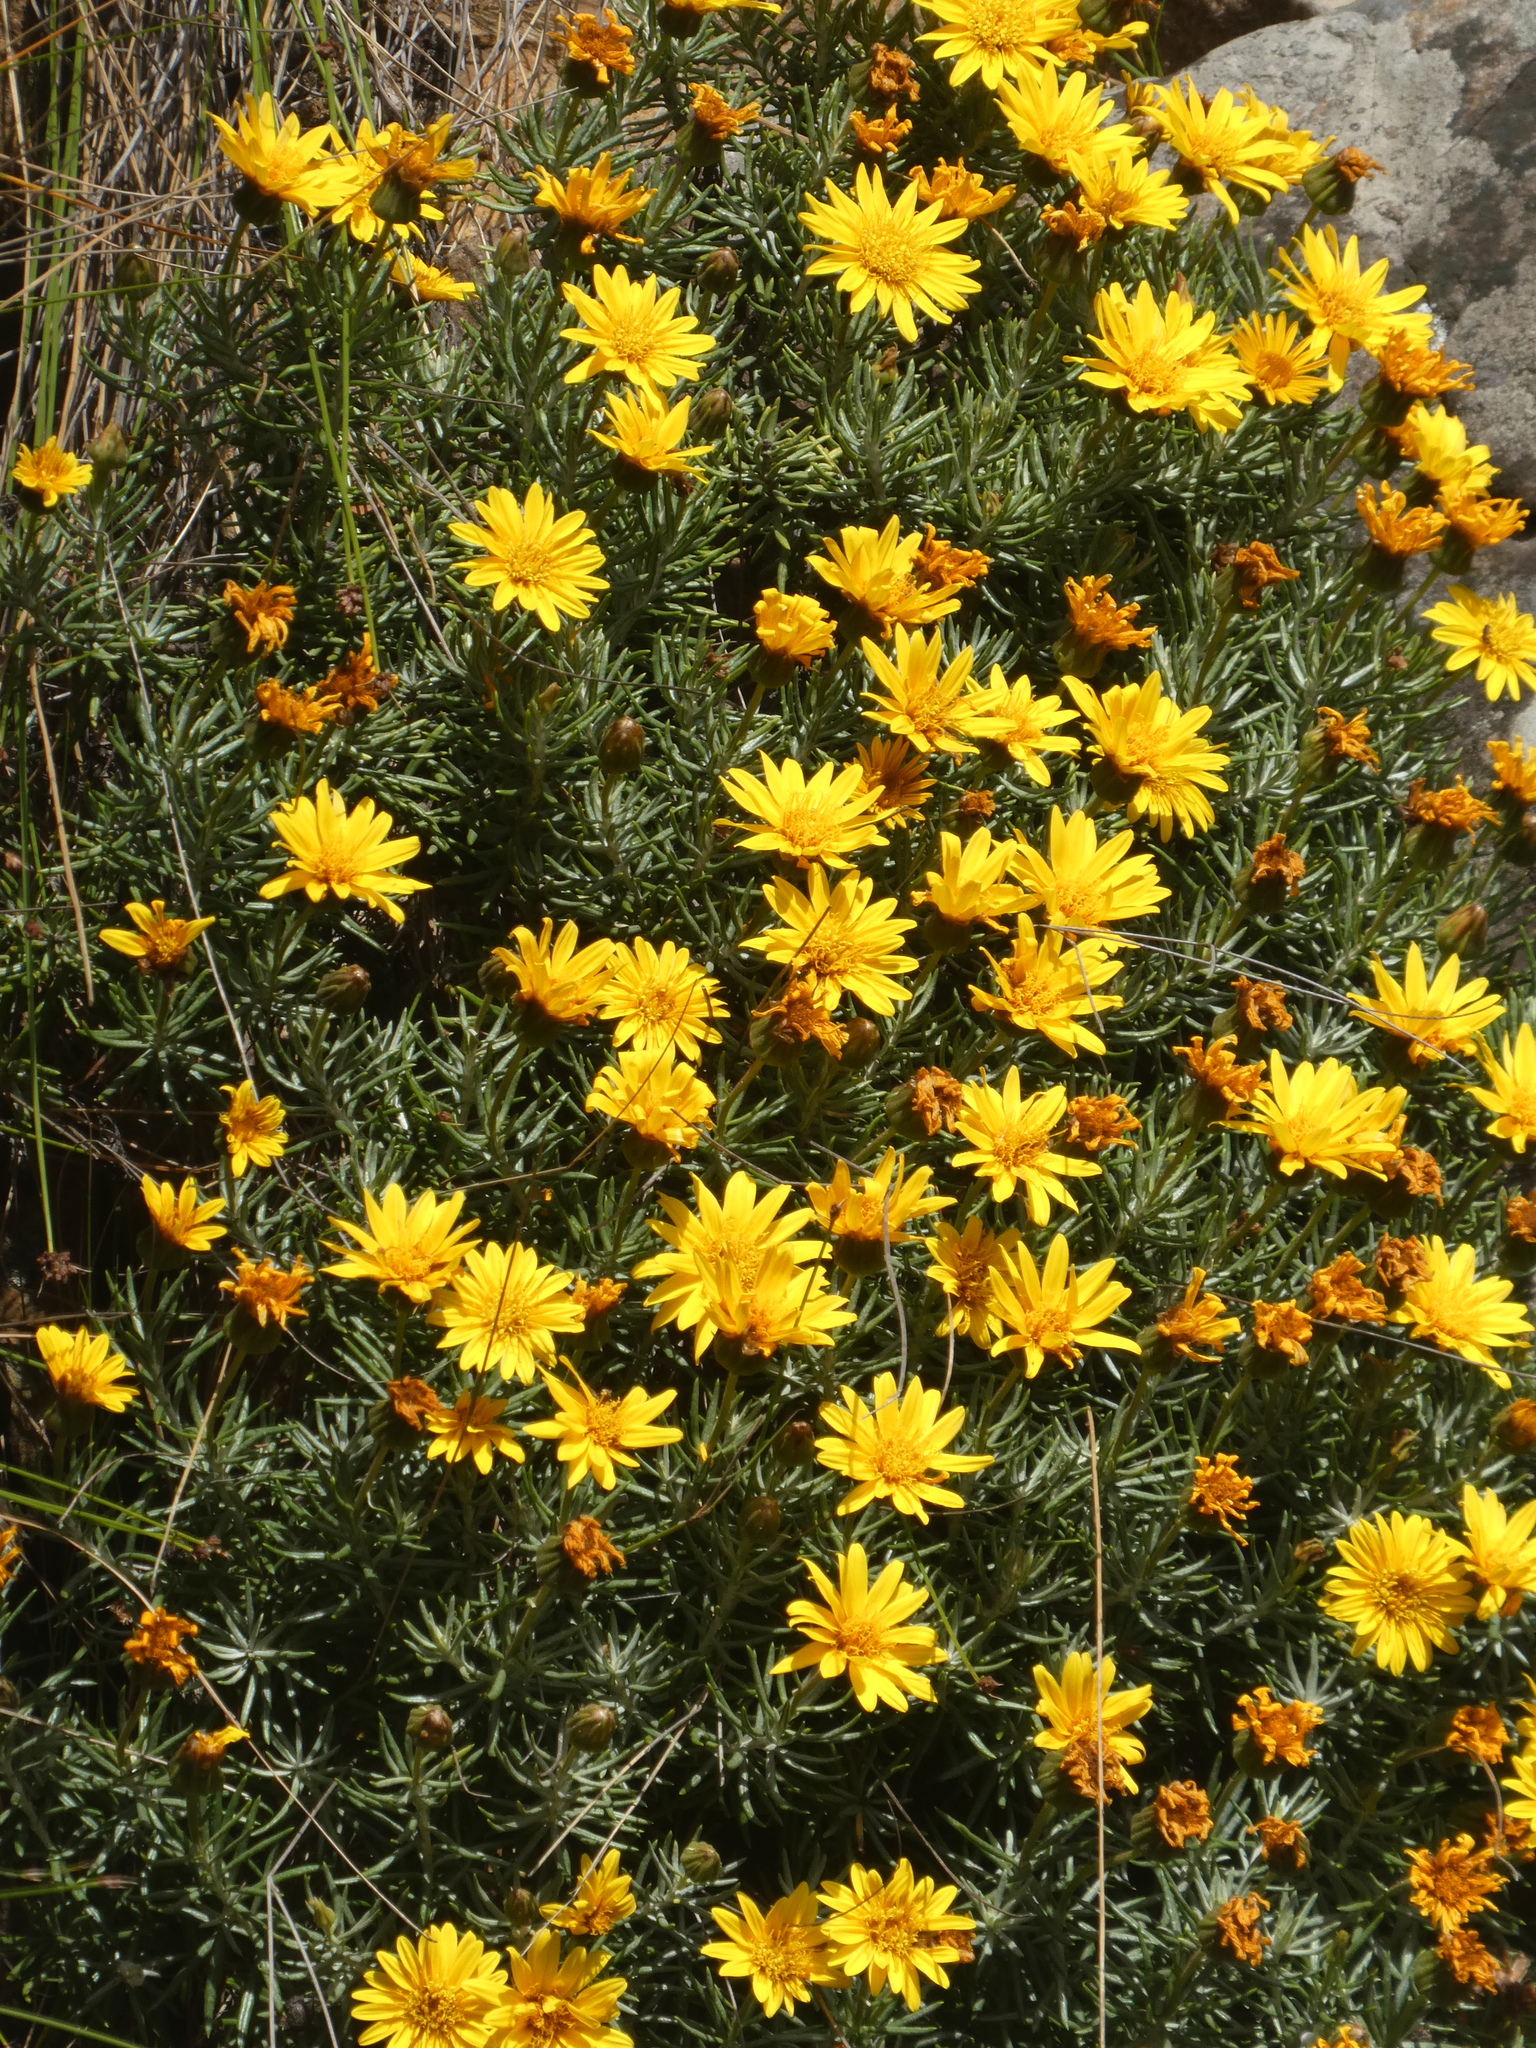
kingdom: Plantae
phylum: Tracheophyta
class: Magnoliopsida
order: Asterales
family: Asteraceae
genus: Heterolepis
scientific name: Heterolepis aliena
